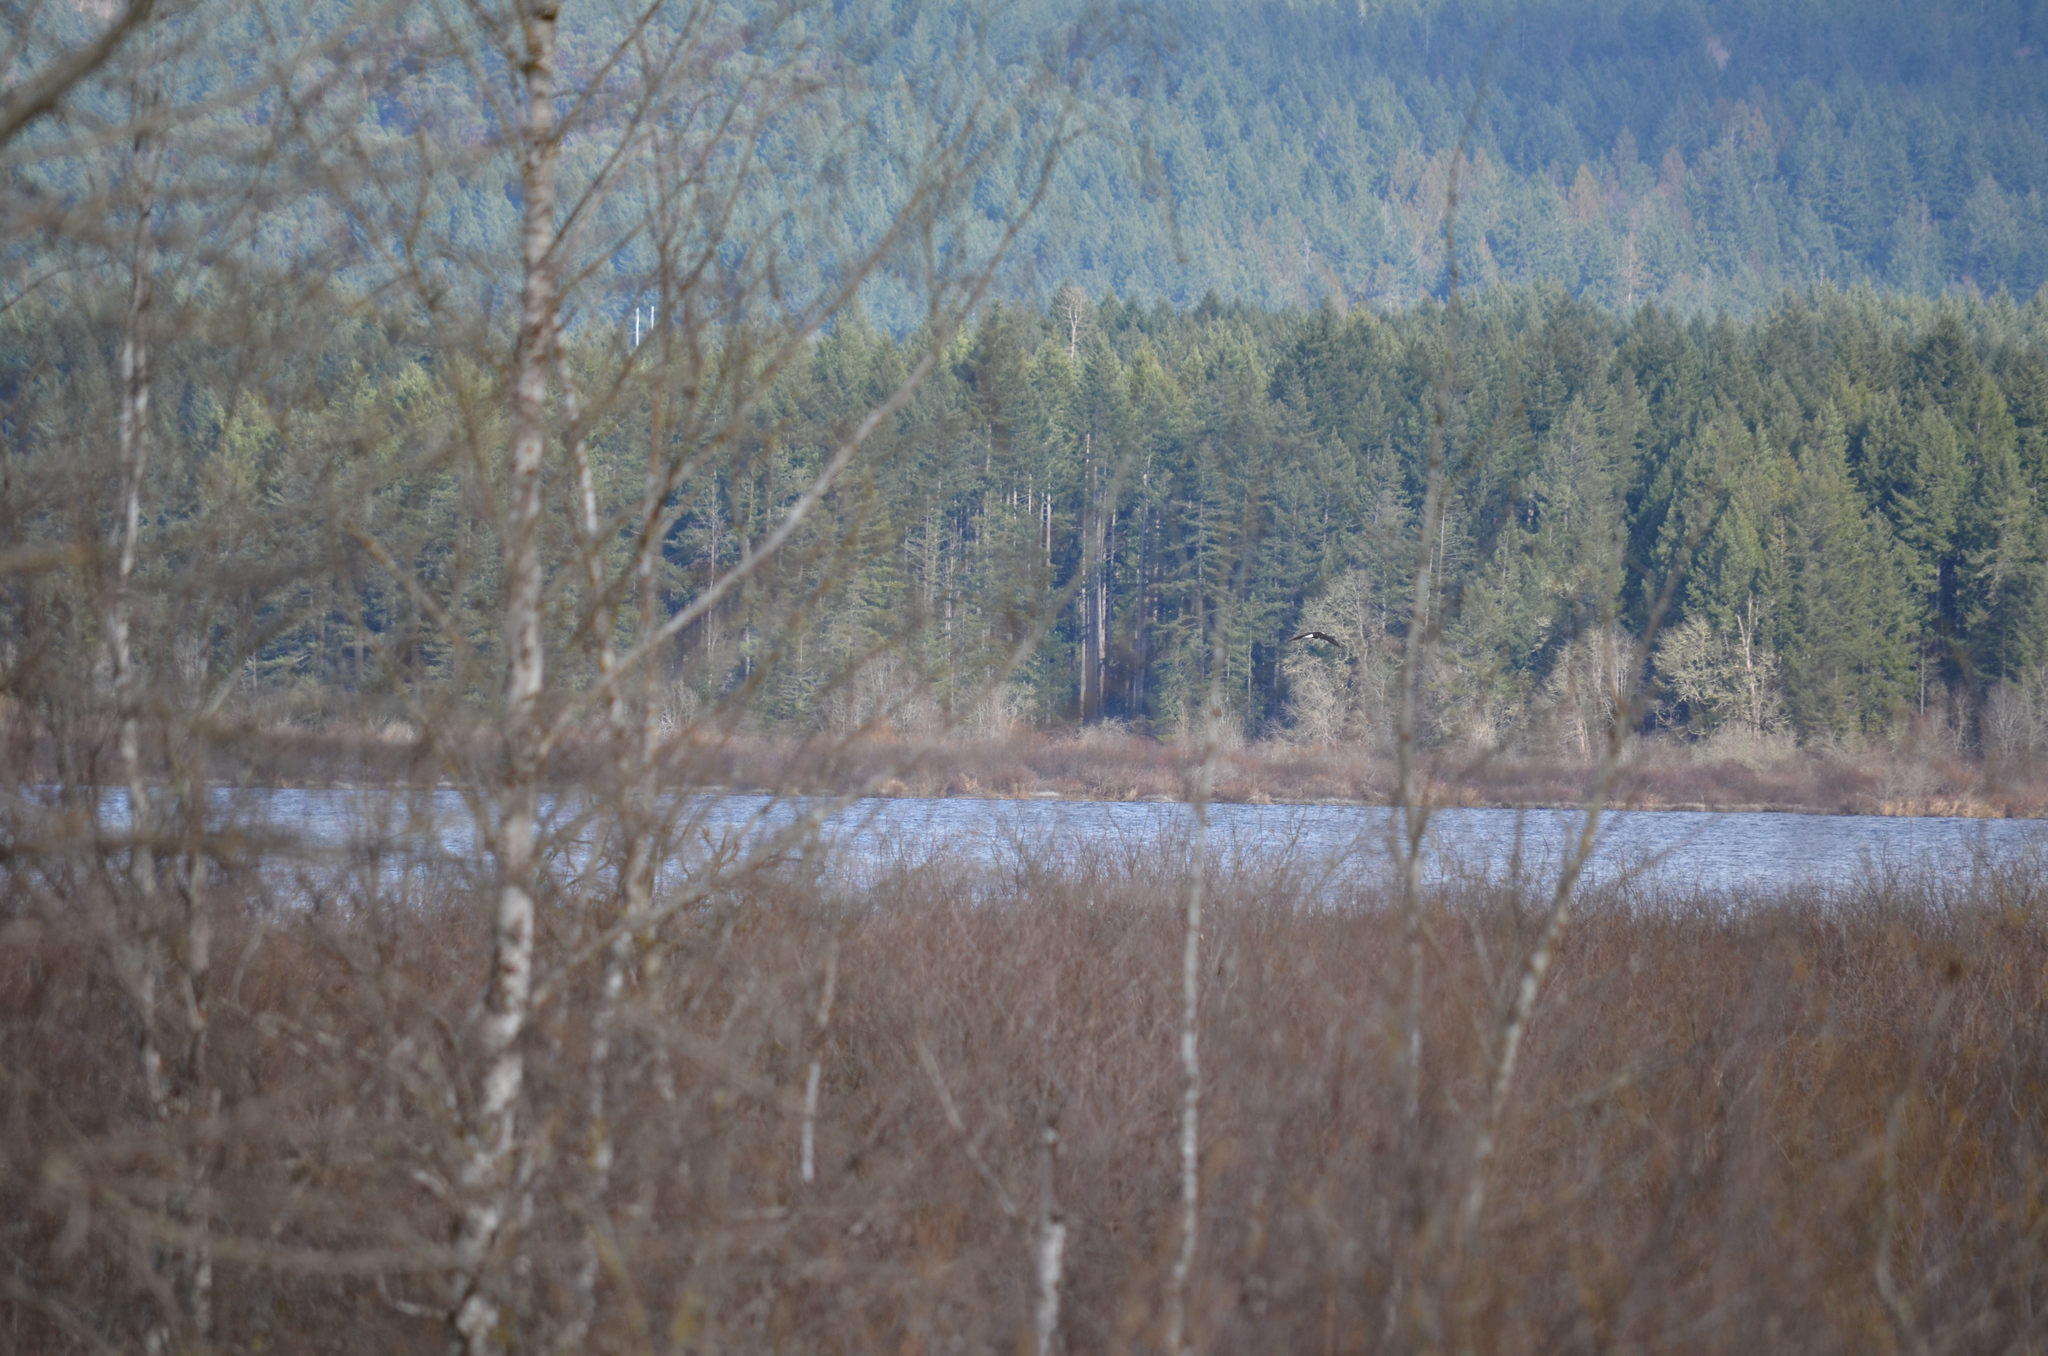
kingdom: Animalia
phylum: Chordata
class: Aves
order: Accipitriformes
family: Accipitridae
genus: Haliaeetus
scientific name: Haliaeetus leucocephalus
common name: Bald eagle
